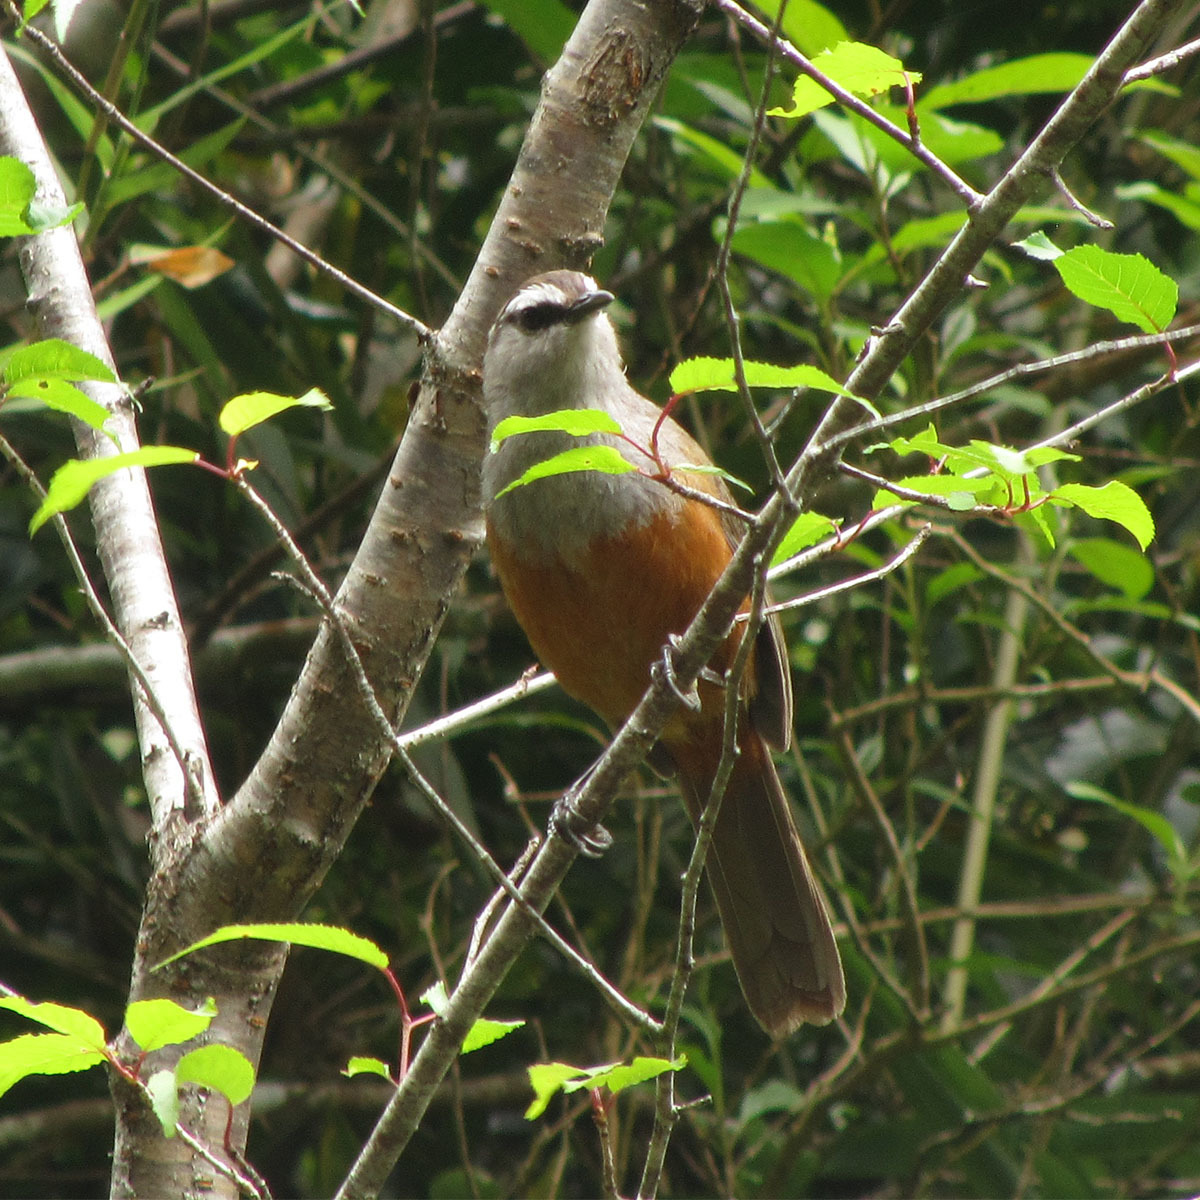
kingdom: Animalia
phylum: Chordata
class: Aves
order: Passeriformes
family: Leiothrichidae
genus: Trochalopteron
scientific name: Trochalopteron fairbanki
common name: Kerala laughingthrush
